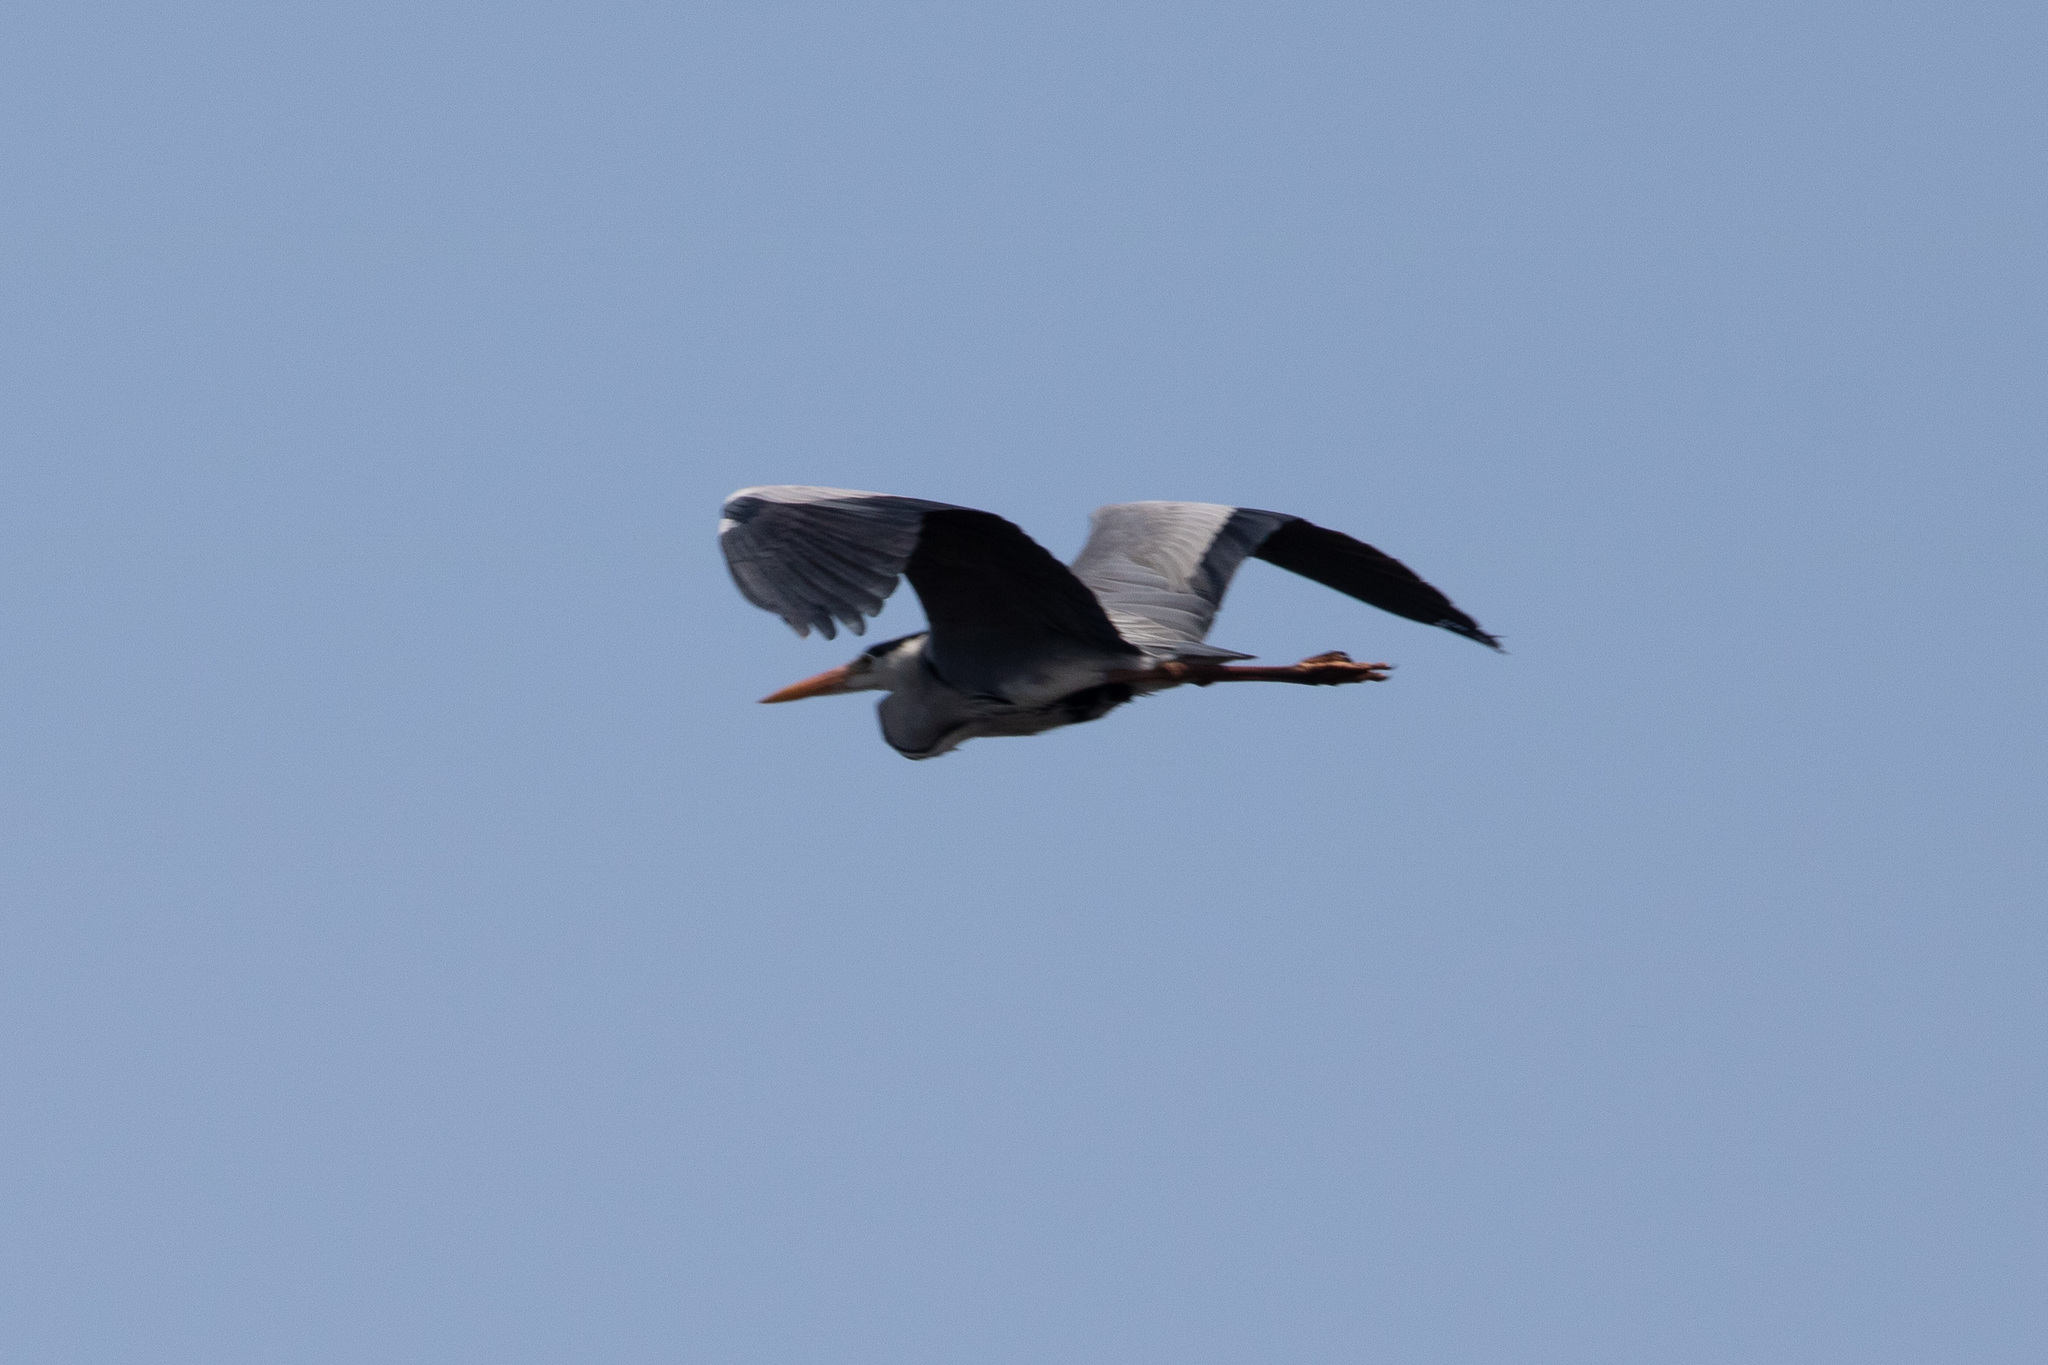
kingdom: Animalia
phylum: Chordata
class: Aves
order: Pelecaniformes
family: Ardeidae
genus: Ardea
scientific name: Ardea cinerea
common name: Grey heron
